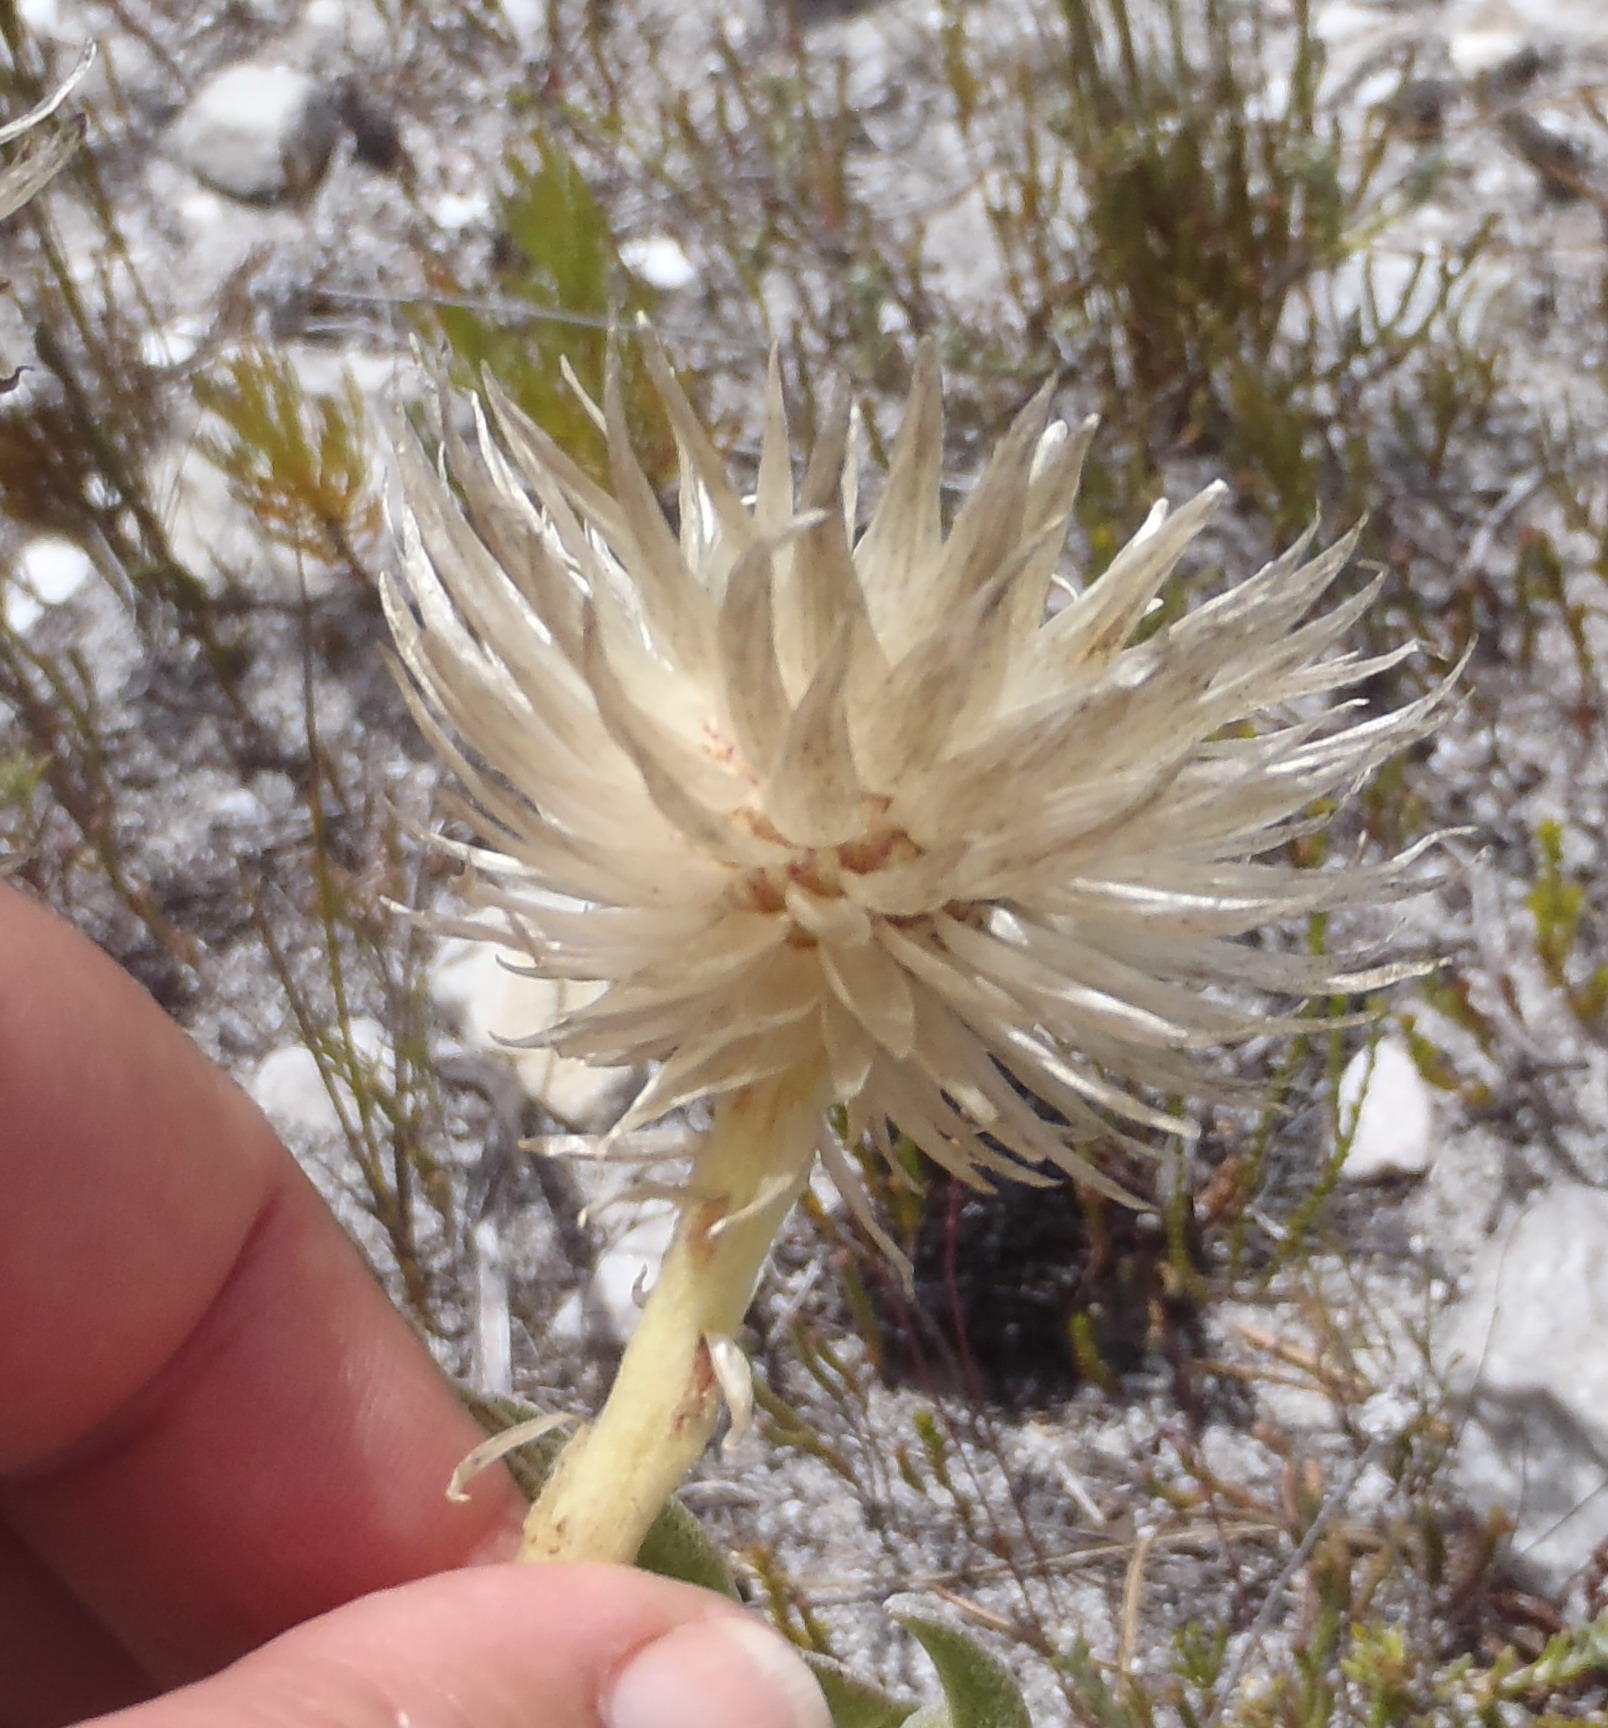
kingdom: Plantae
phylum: Tracheophyta
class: Magnoliopsida
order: Asterales
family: Asteraceae
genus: Syncarpha
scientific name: Syncarpha vestita
